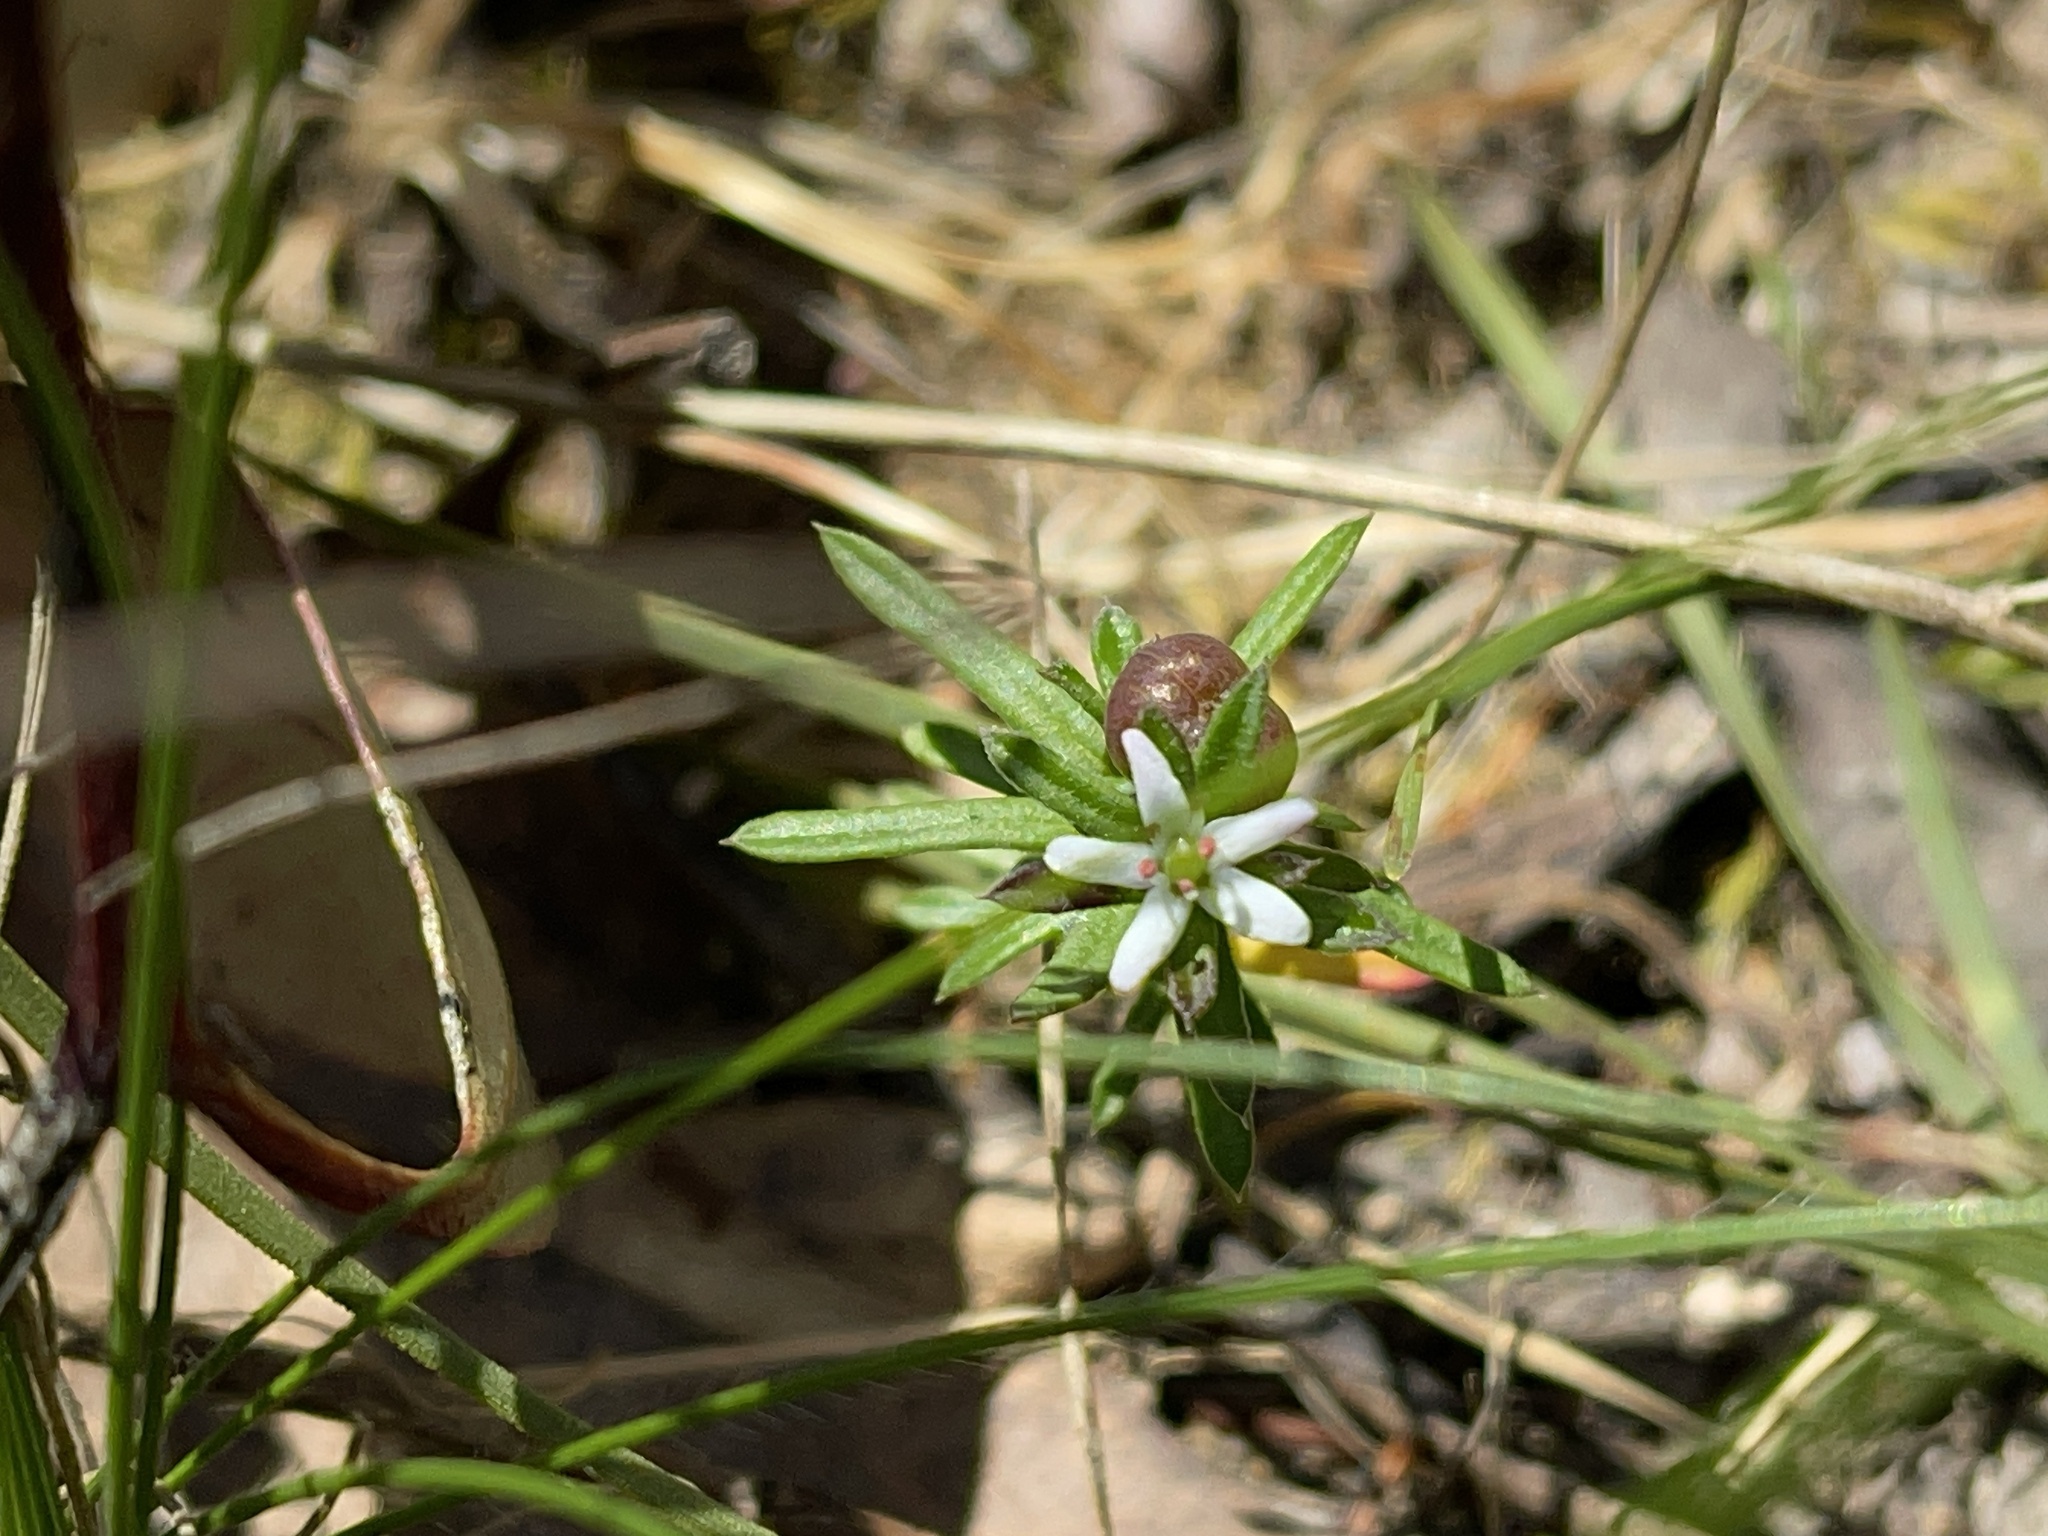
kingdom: Plantae
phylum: Tracheophyta
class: Magnoliopsida
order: Apiales
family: Pittosporaceae
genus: Rhytidosporum
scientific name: Rhytidosporum procumbens
